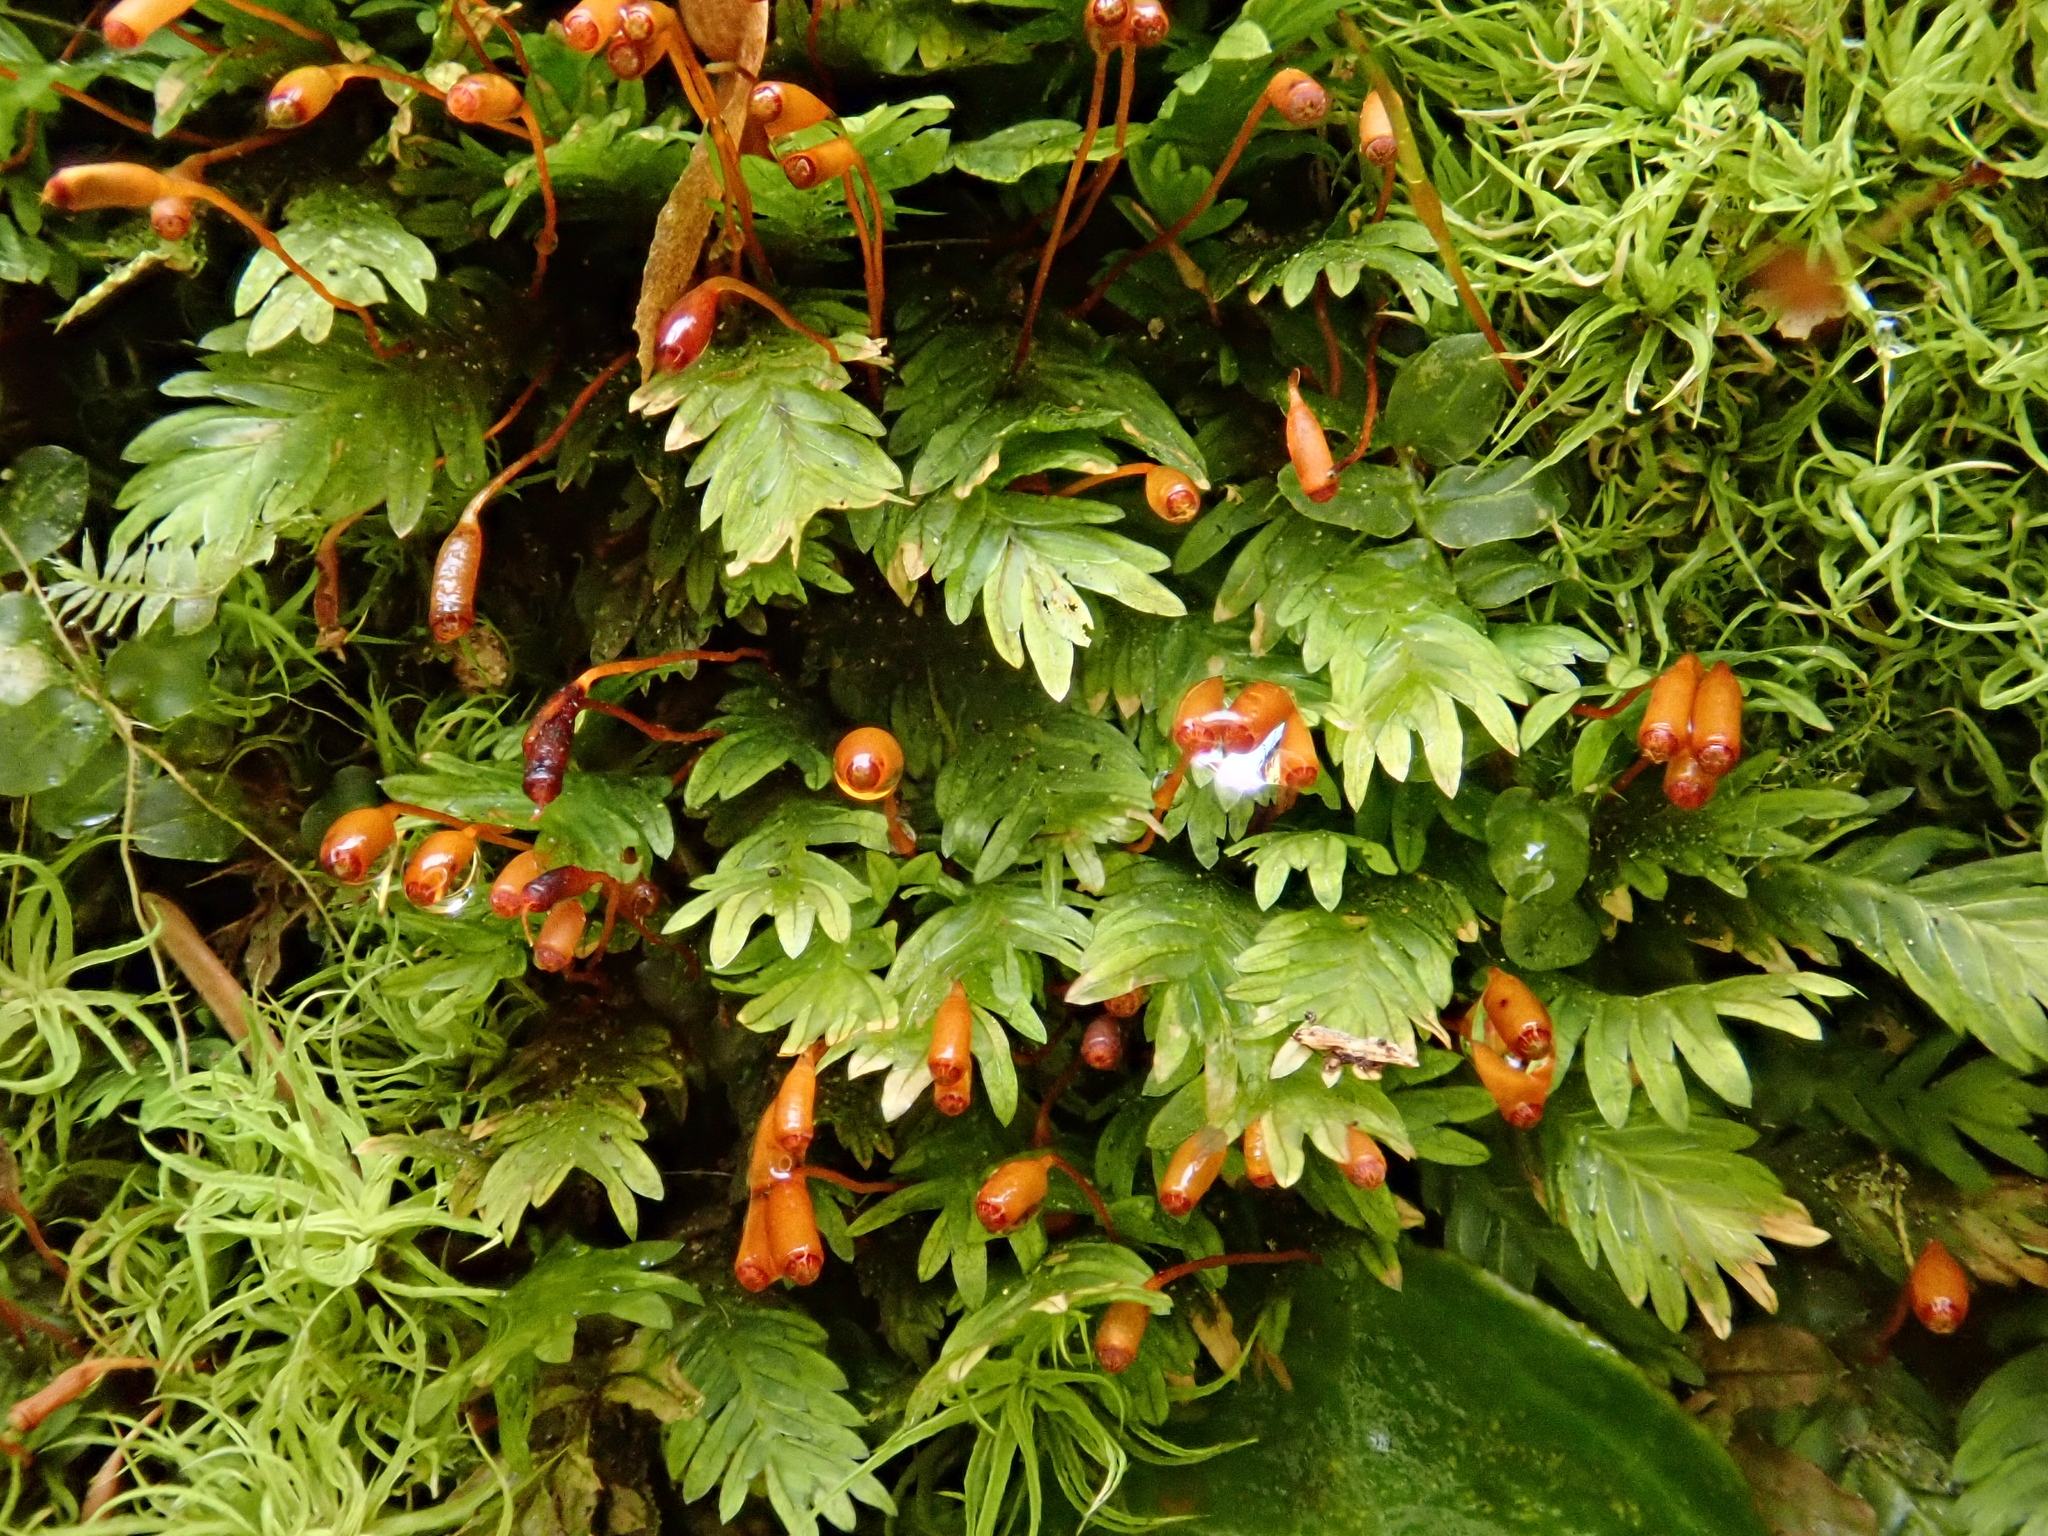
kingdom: Plantae
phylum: Bryophyta
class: Bryopsida
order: Dicranales
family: Fissidentaceae
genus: Fissidens
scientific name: Fissidens dubius
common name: Rock pocket moss
